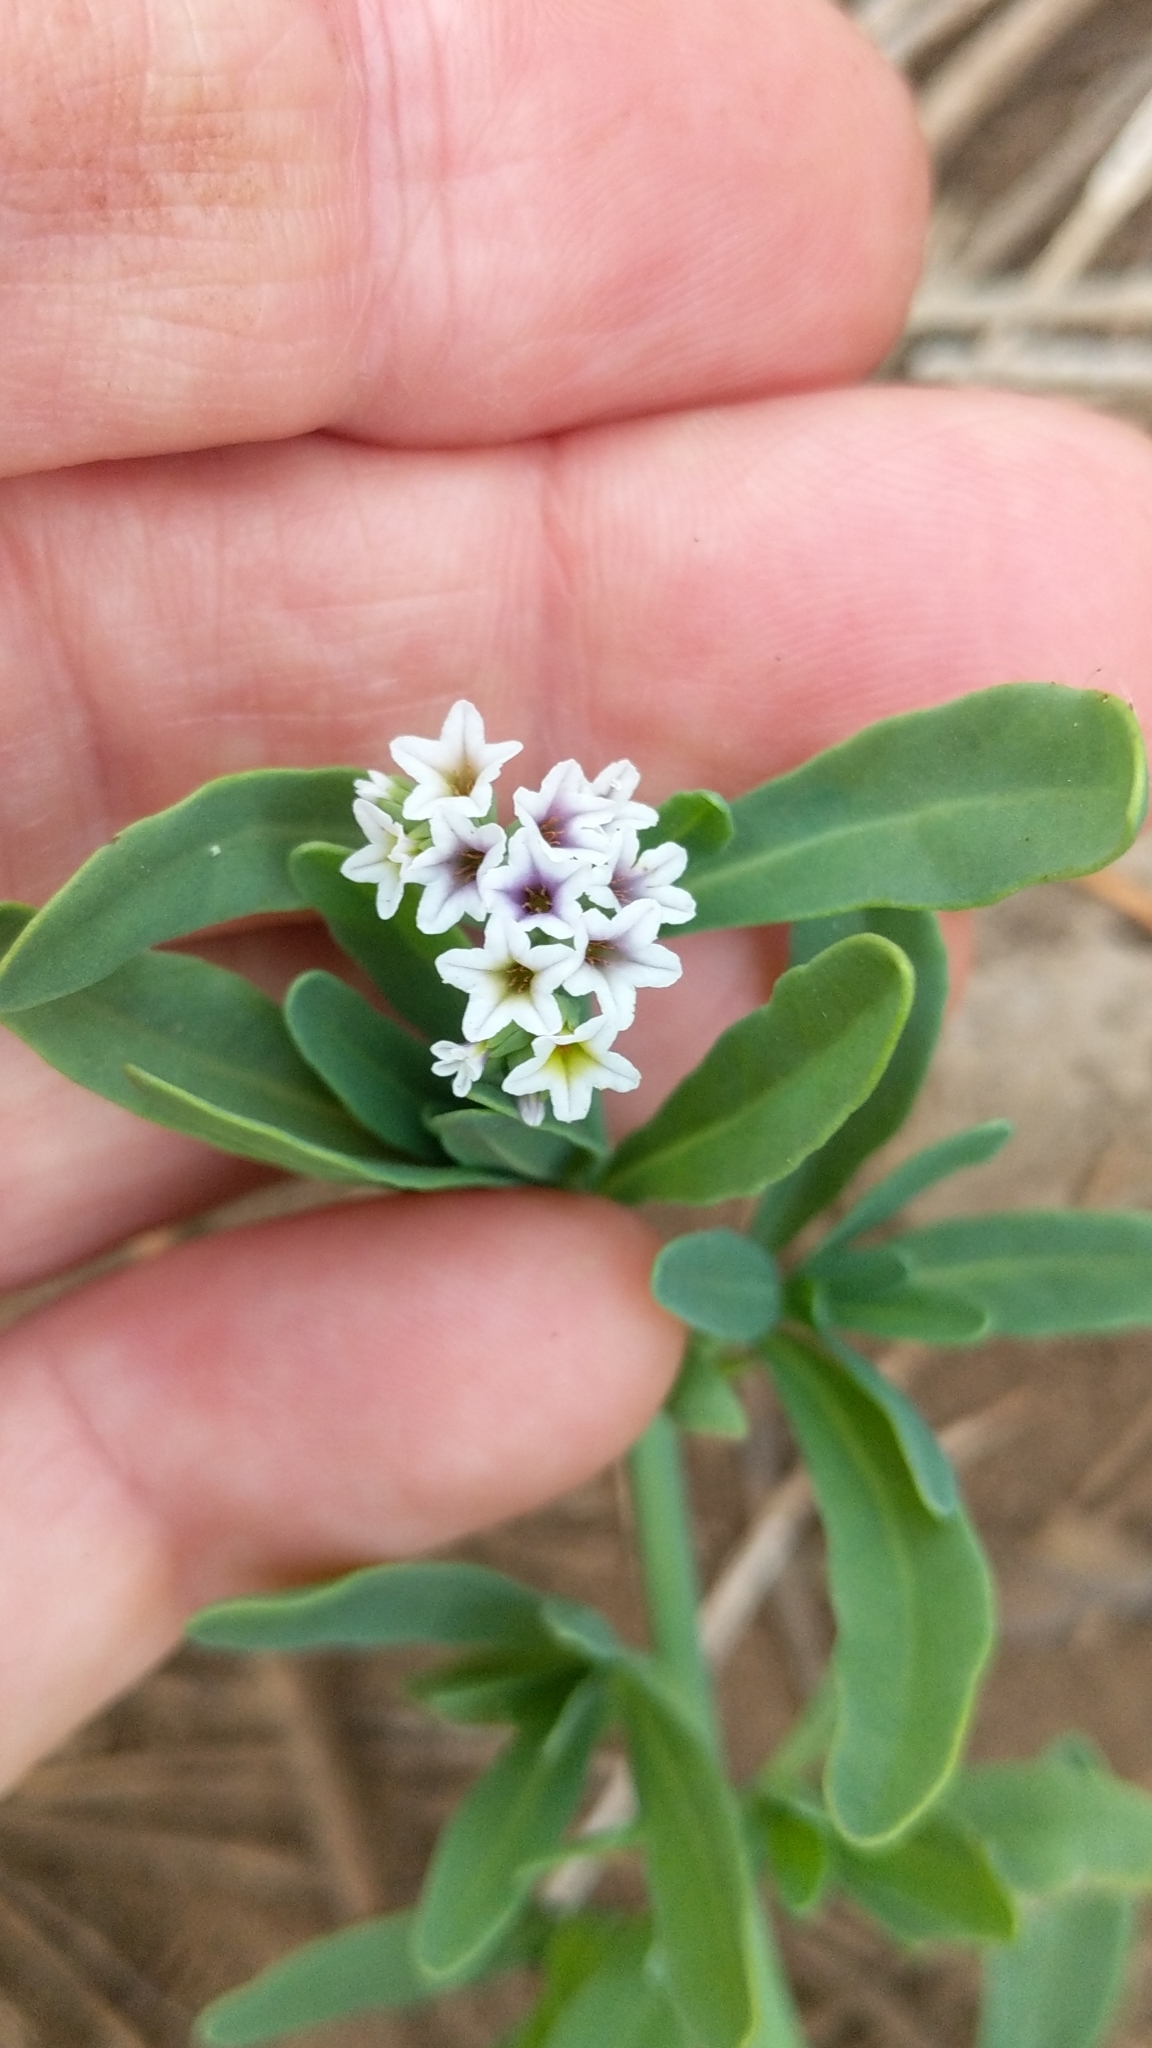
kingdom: Plantae
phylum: Tracheophyta
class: Magnoliopsida
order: Boraginales
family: Heliotropiaceae
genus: Heliotropium
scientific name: Heliotropium curassavicum
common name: Seaside heliotrope
